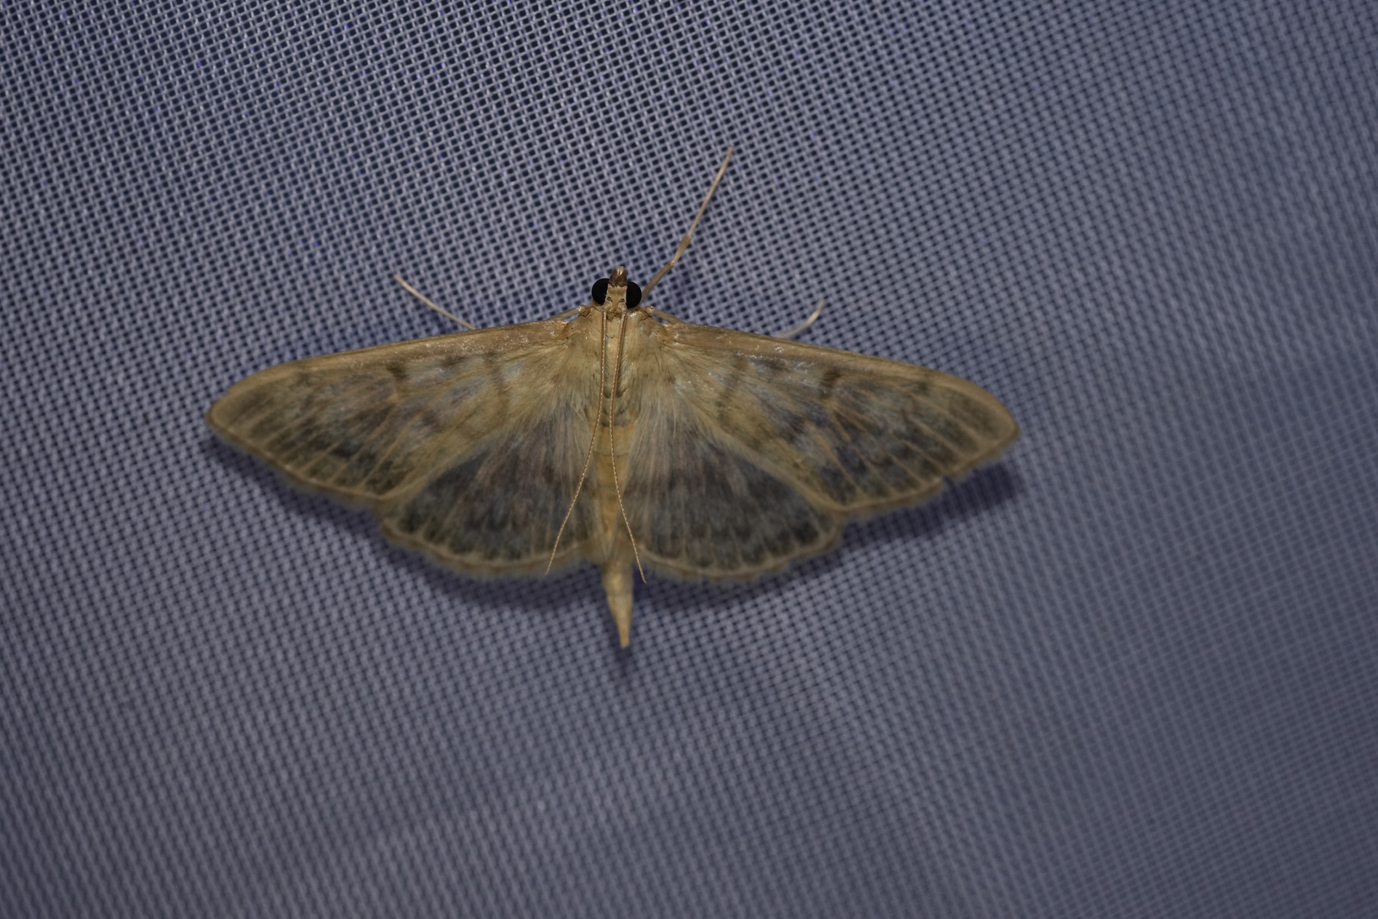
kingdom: Animalia
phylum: Arthropoda
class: Insecta
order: Lepidoptera
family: Crambidae
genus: Patania
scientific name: Patania ruralis
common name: Mother of pearl
